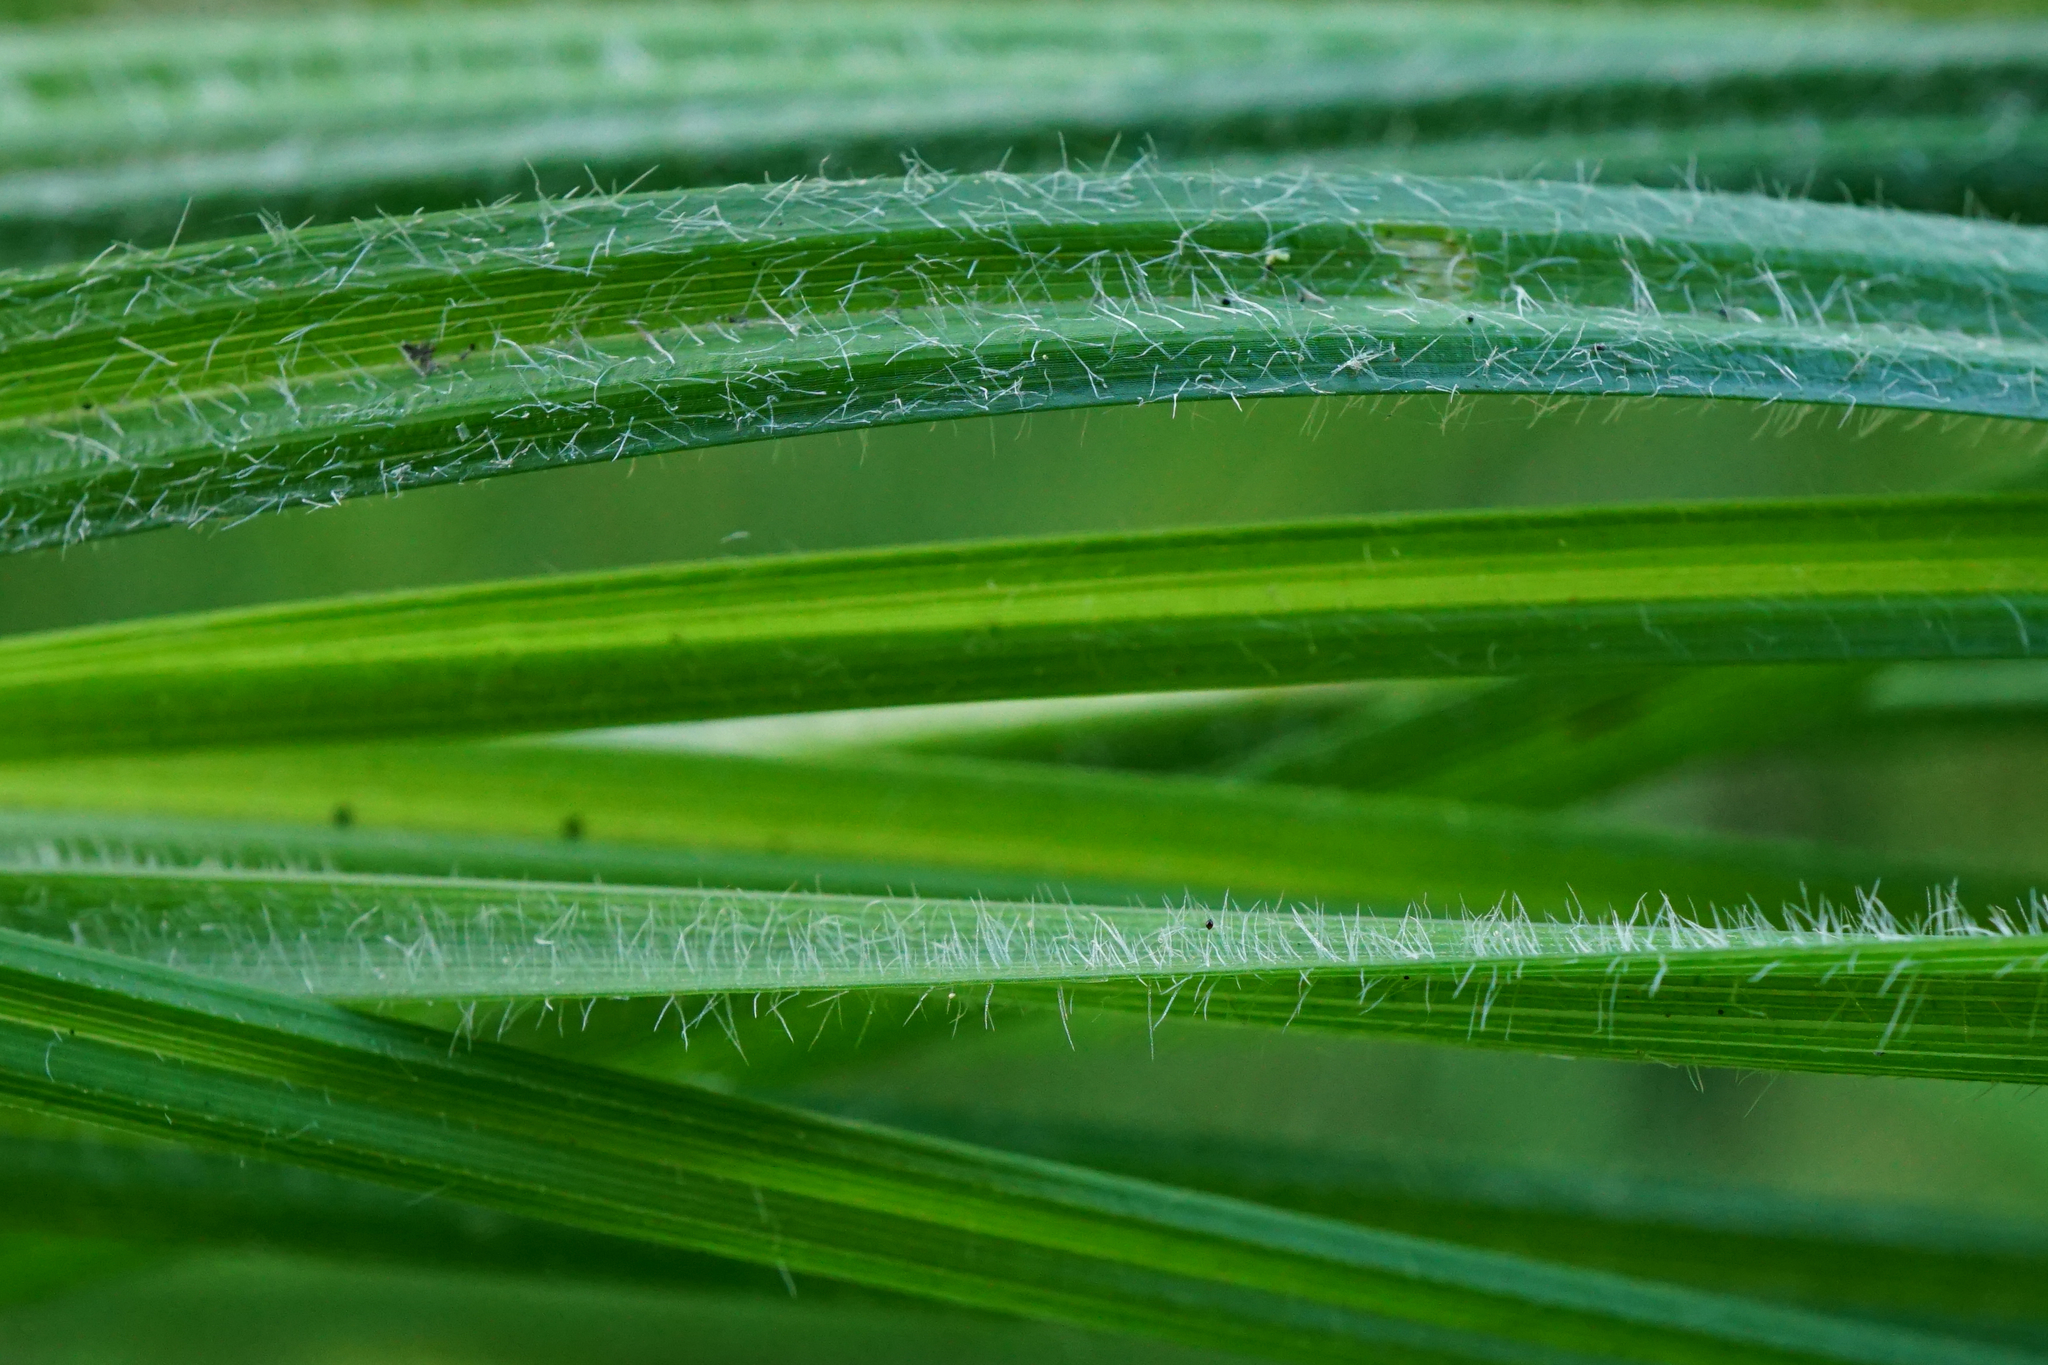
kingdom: Plantae
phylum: Tracheophyta
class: Liliopsida
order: Poales
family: Cyperaceae
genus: Carex
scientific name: Carex hirta
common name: Hairy sedge
